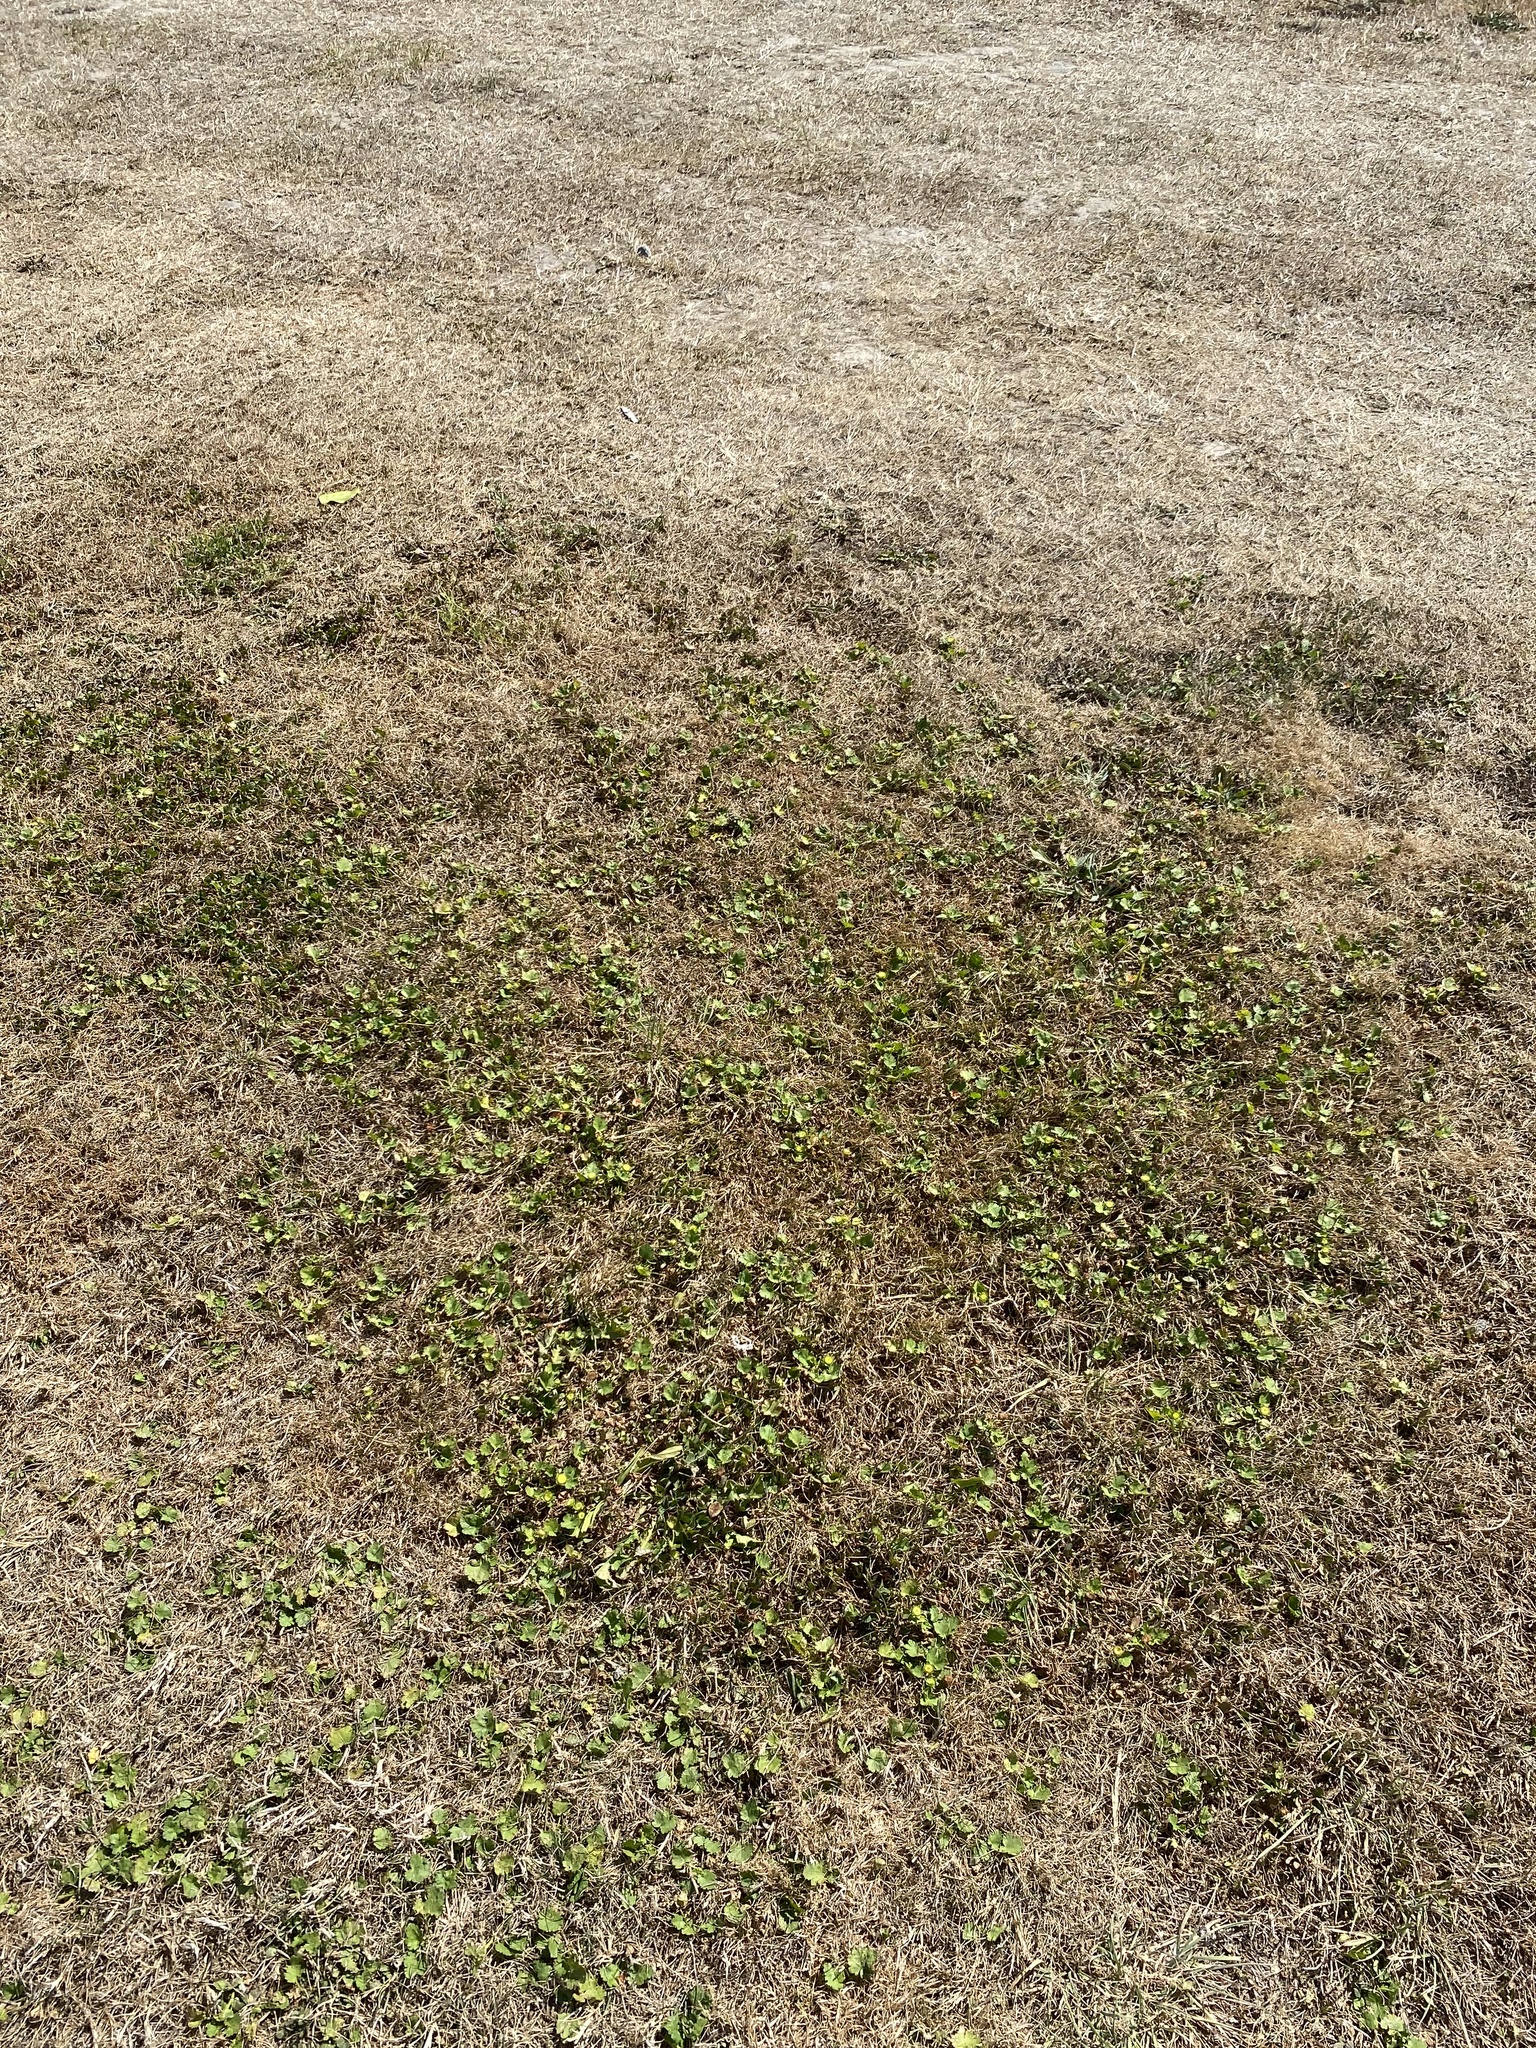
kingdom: Plantae
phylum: Tracheophyta
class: Magnoliopsida
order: Malvales
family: Malvaceae
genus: Modiola
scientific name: Modiola caroliniana
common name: Carolina bristlemallow
